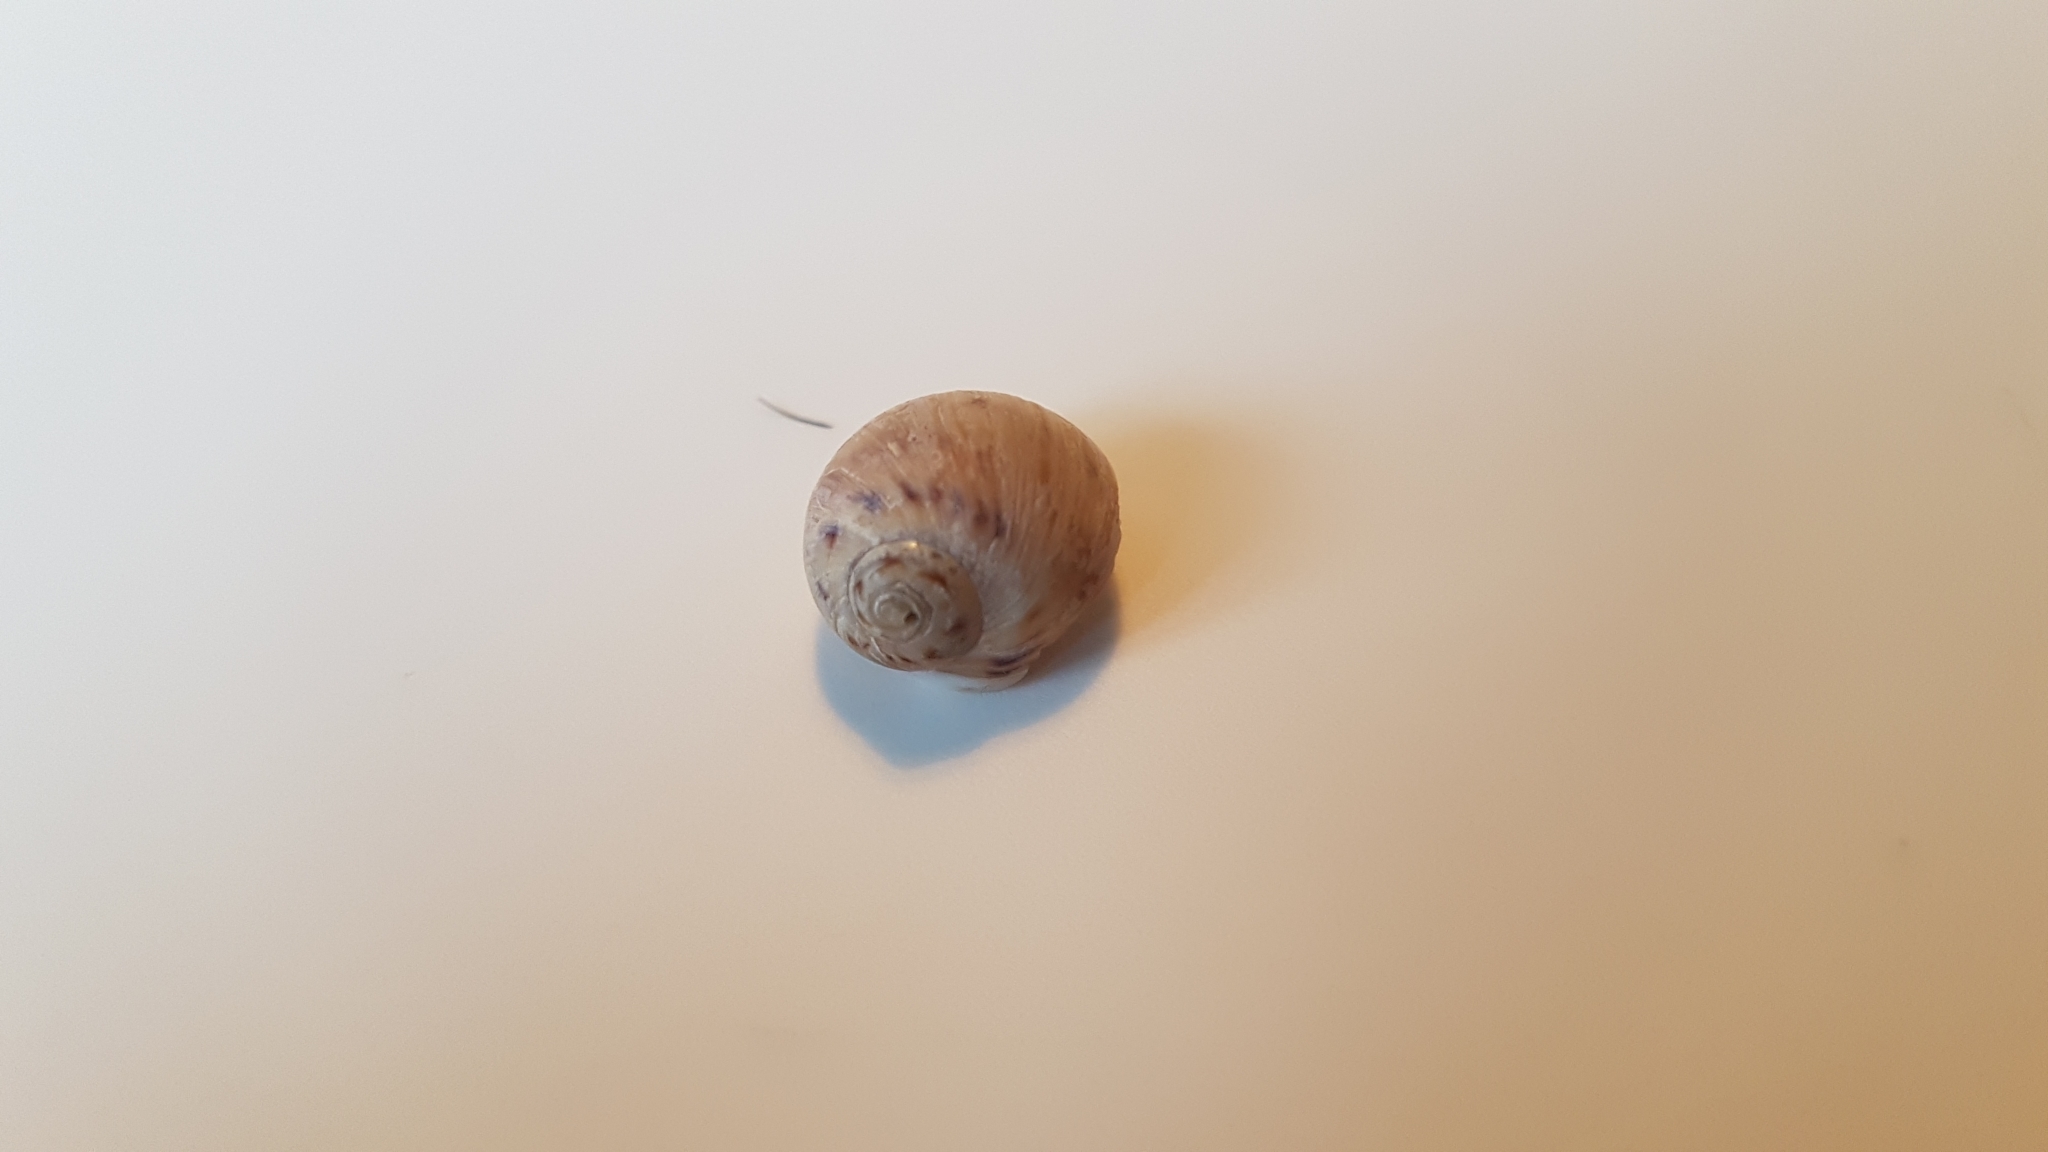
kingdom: Animalia
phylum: Mollusca
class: Gastropoda
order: Littorinimorpha
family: Naticidae
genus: Euspira
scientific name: Euspira nitida
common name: Alder's necklace shell
